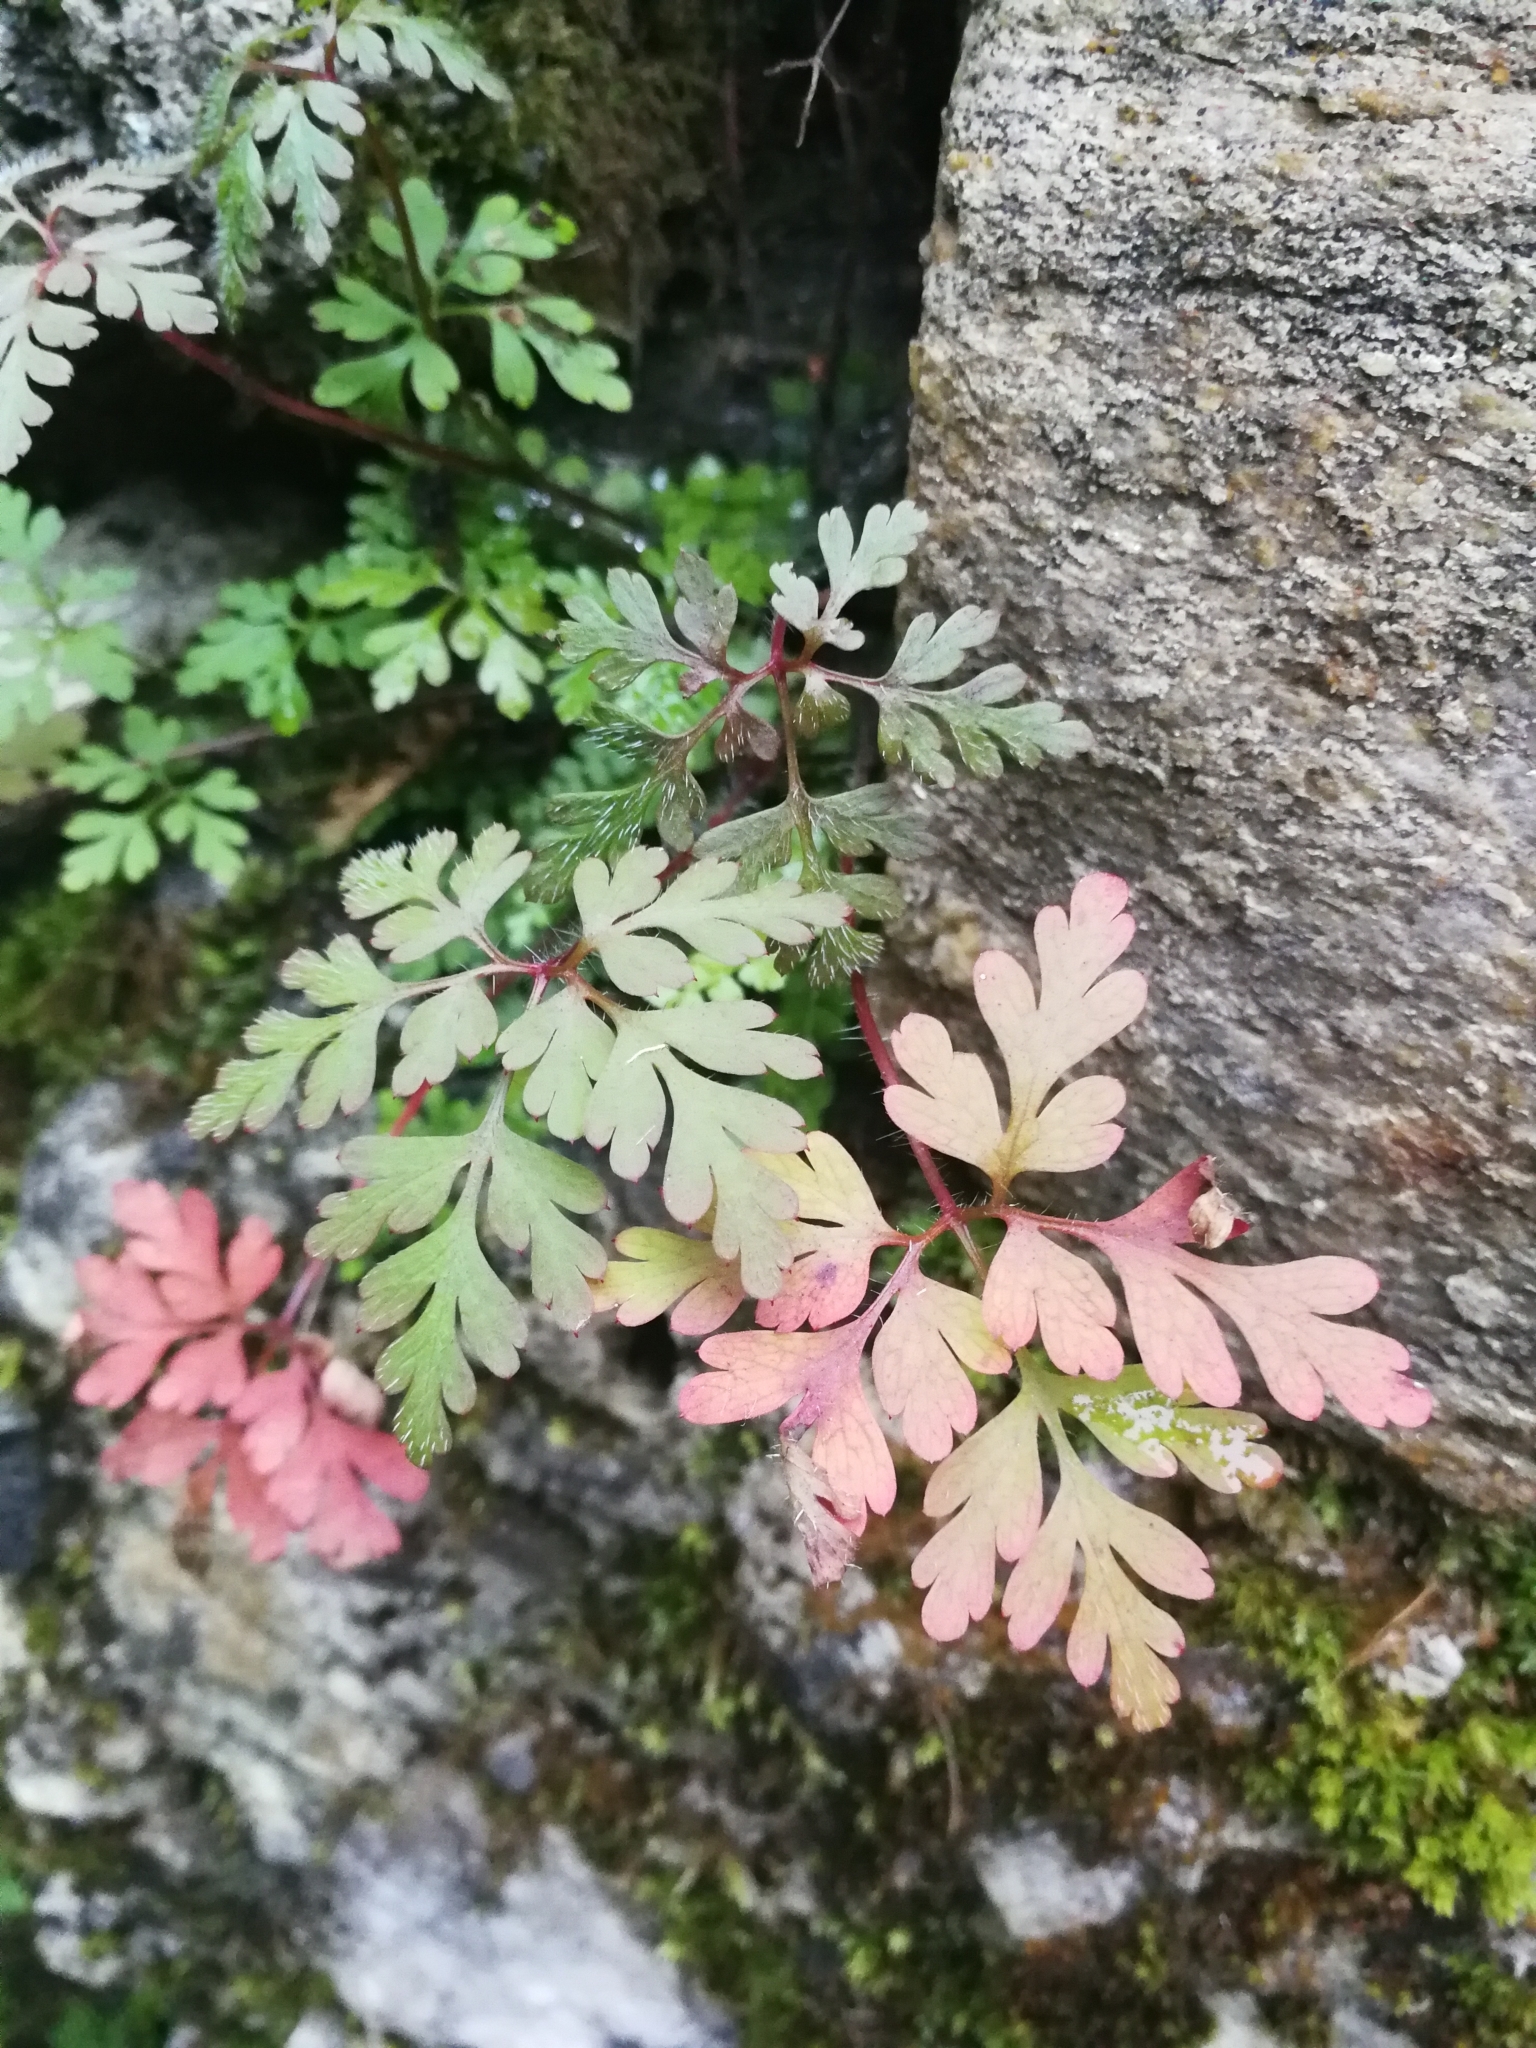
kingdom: Plantae
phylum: Tracheophyta
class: Magnoliopsida
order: Geraniales
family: Geraniaceae
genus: Geranium
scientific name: Geranium robertianum
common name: Herb-robert
